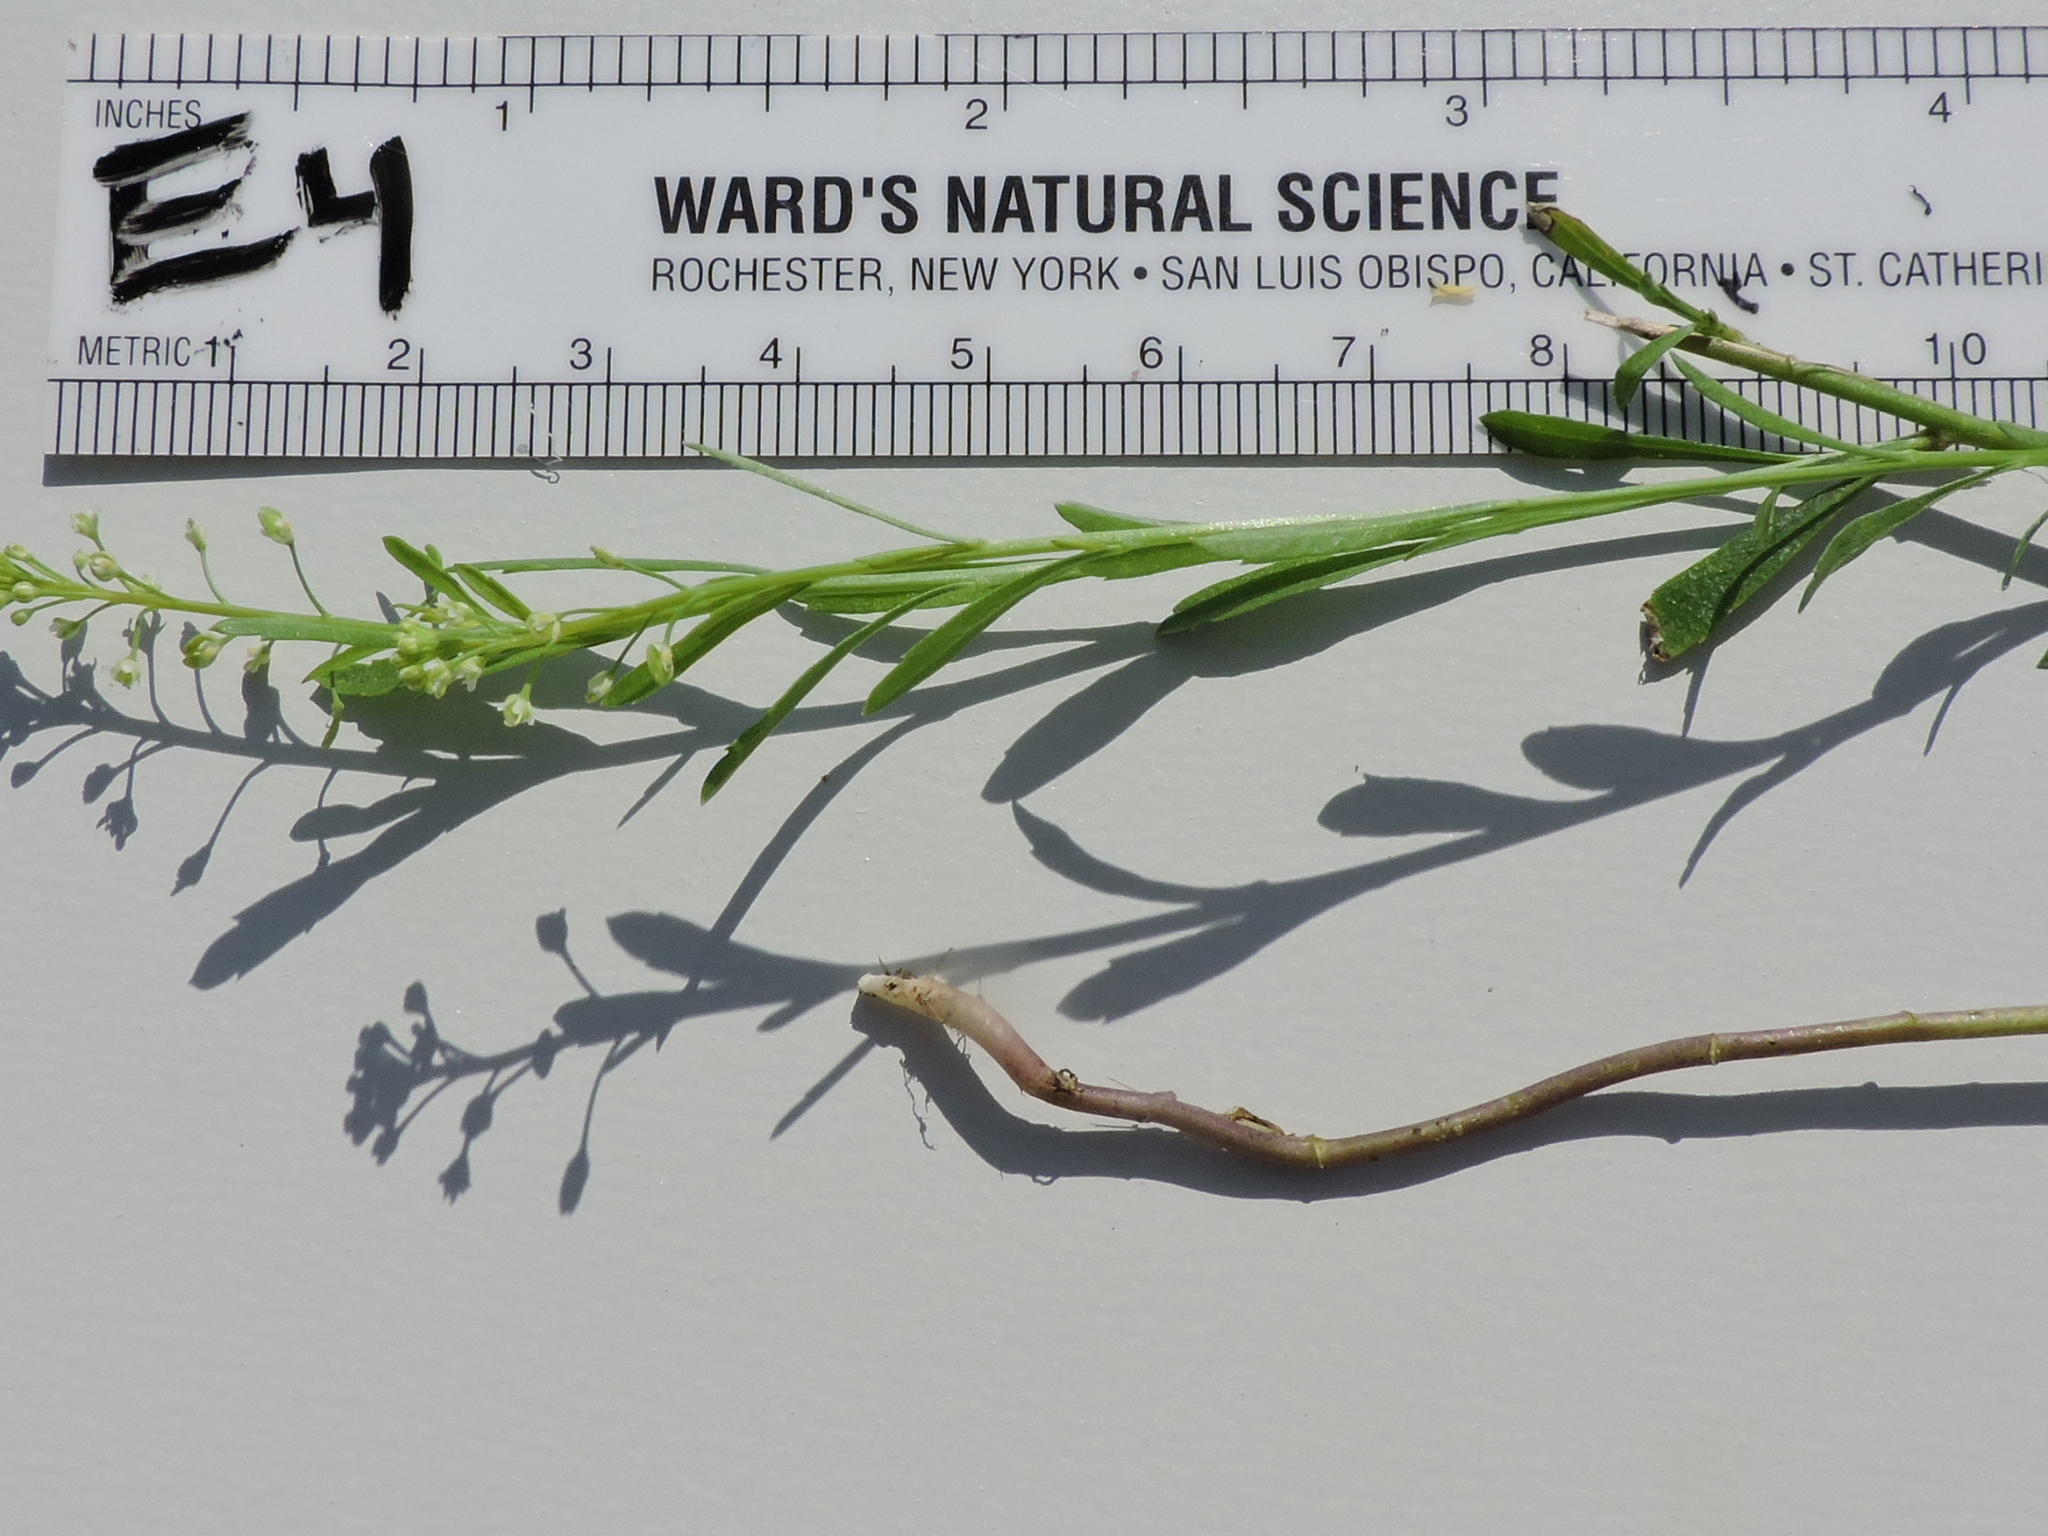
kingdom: Plantae
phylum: Tracheophyta
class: Magnoliopsida
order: Brassicales
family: Brassicaceae
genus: Lepidium
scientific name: Lepidium virginicum
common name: Least pepperwort
